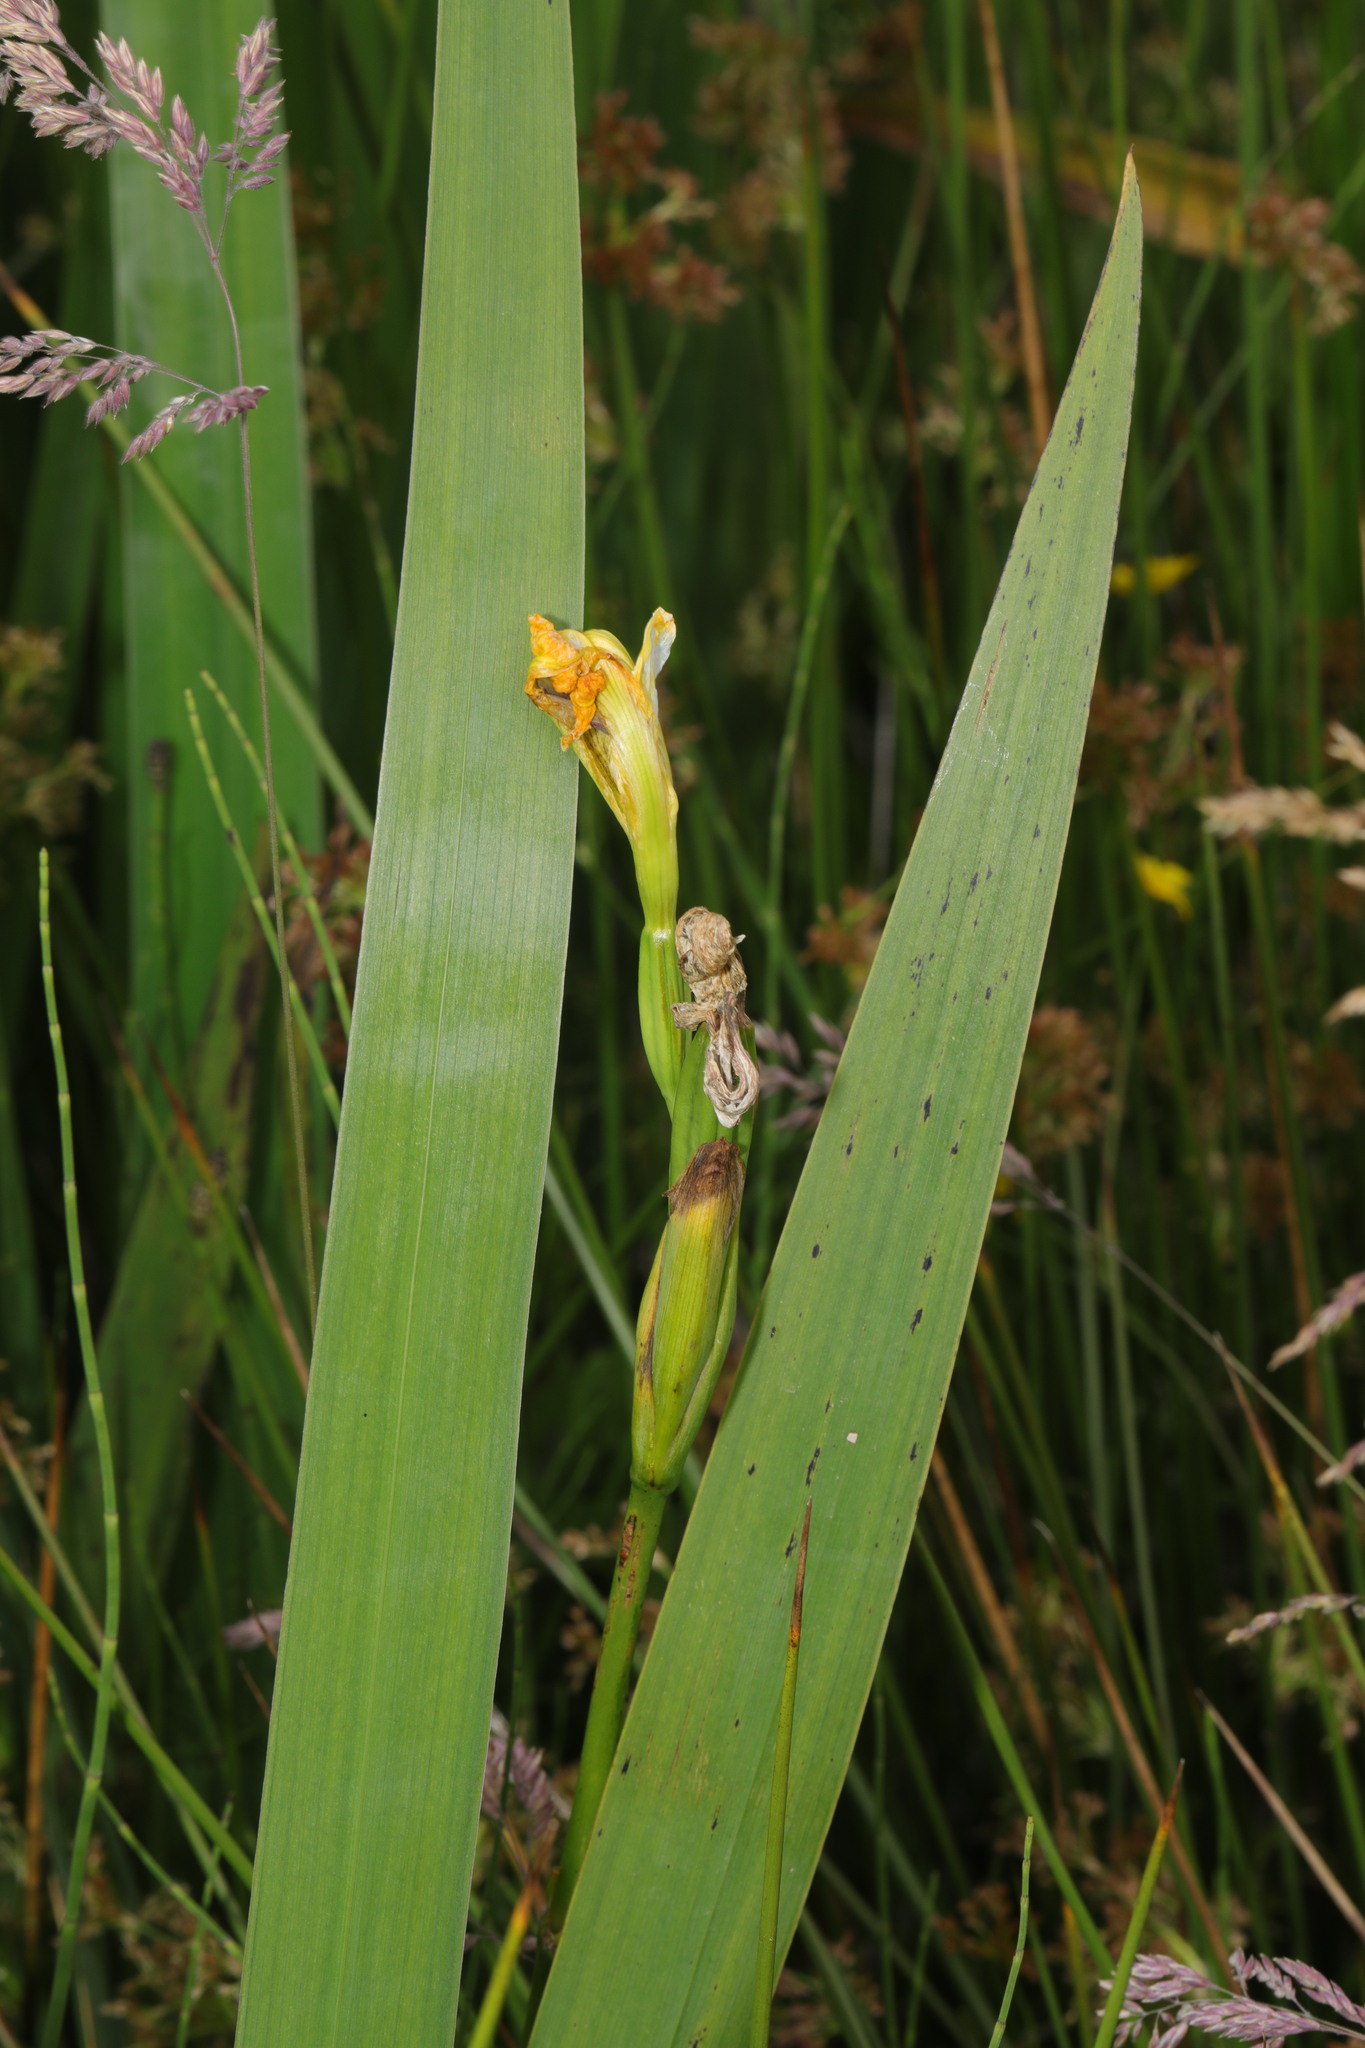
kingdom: Plantae
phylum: Tracheophyta
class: Liliopsida
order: Asparagales
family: Iridaceae
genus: Iris
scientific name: Iris pseudacorus
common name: Yellow flag
